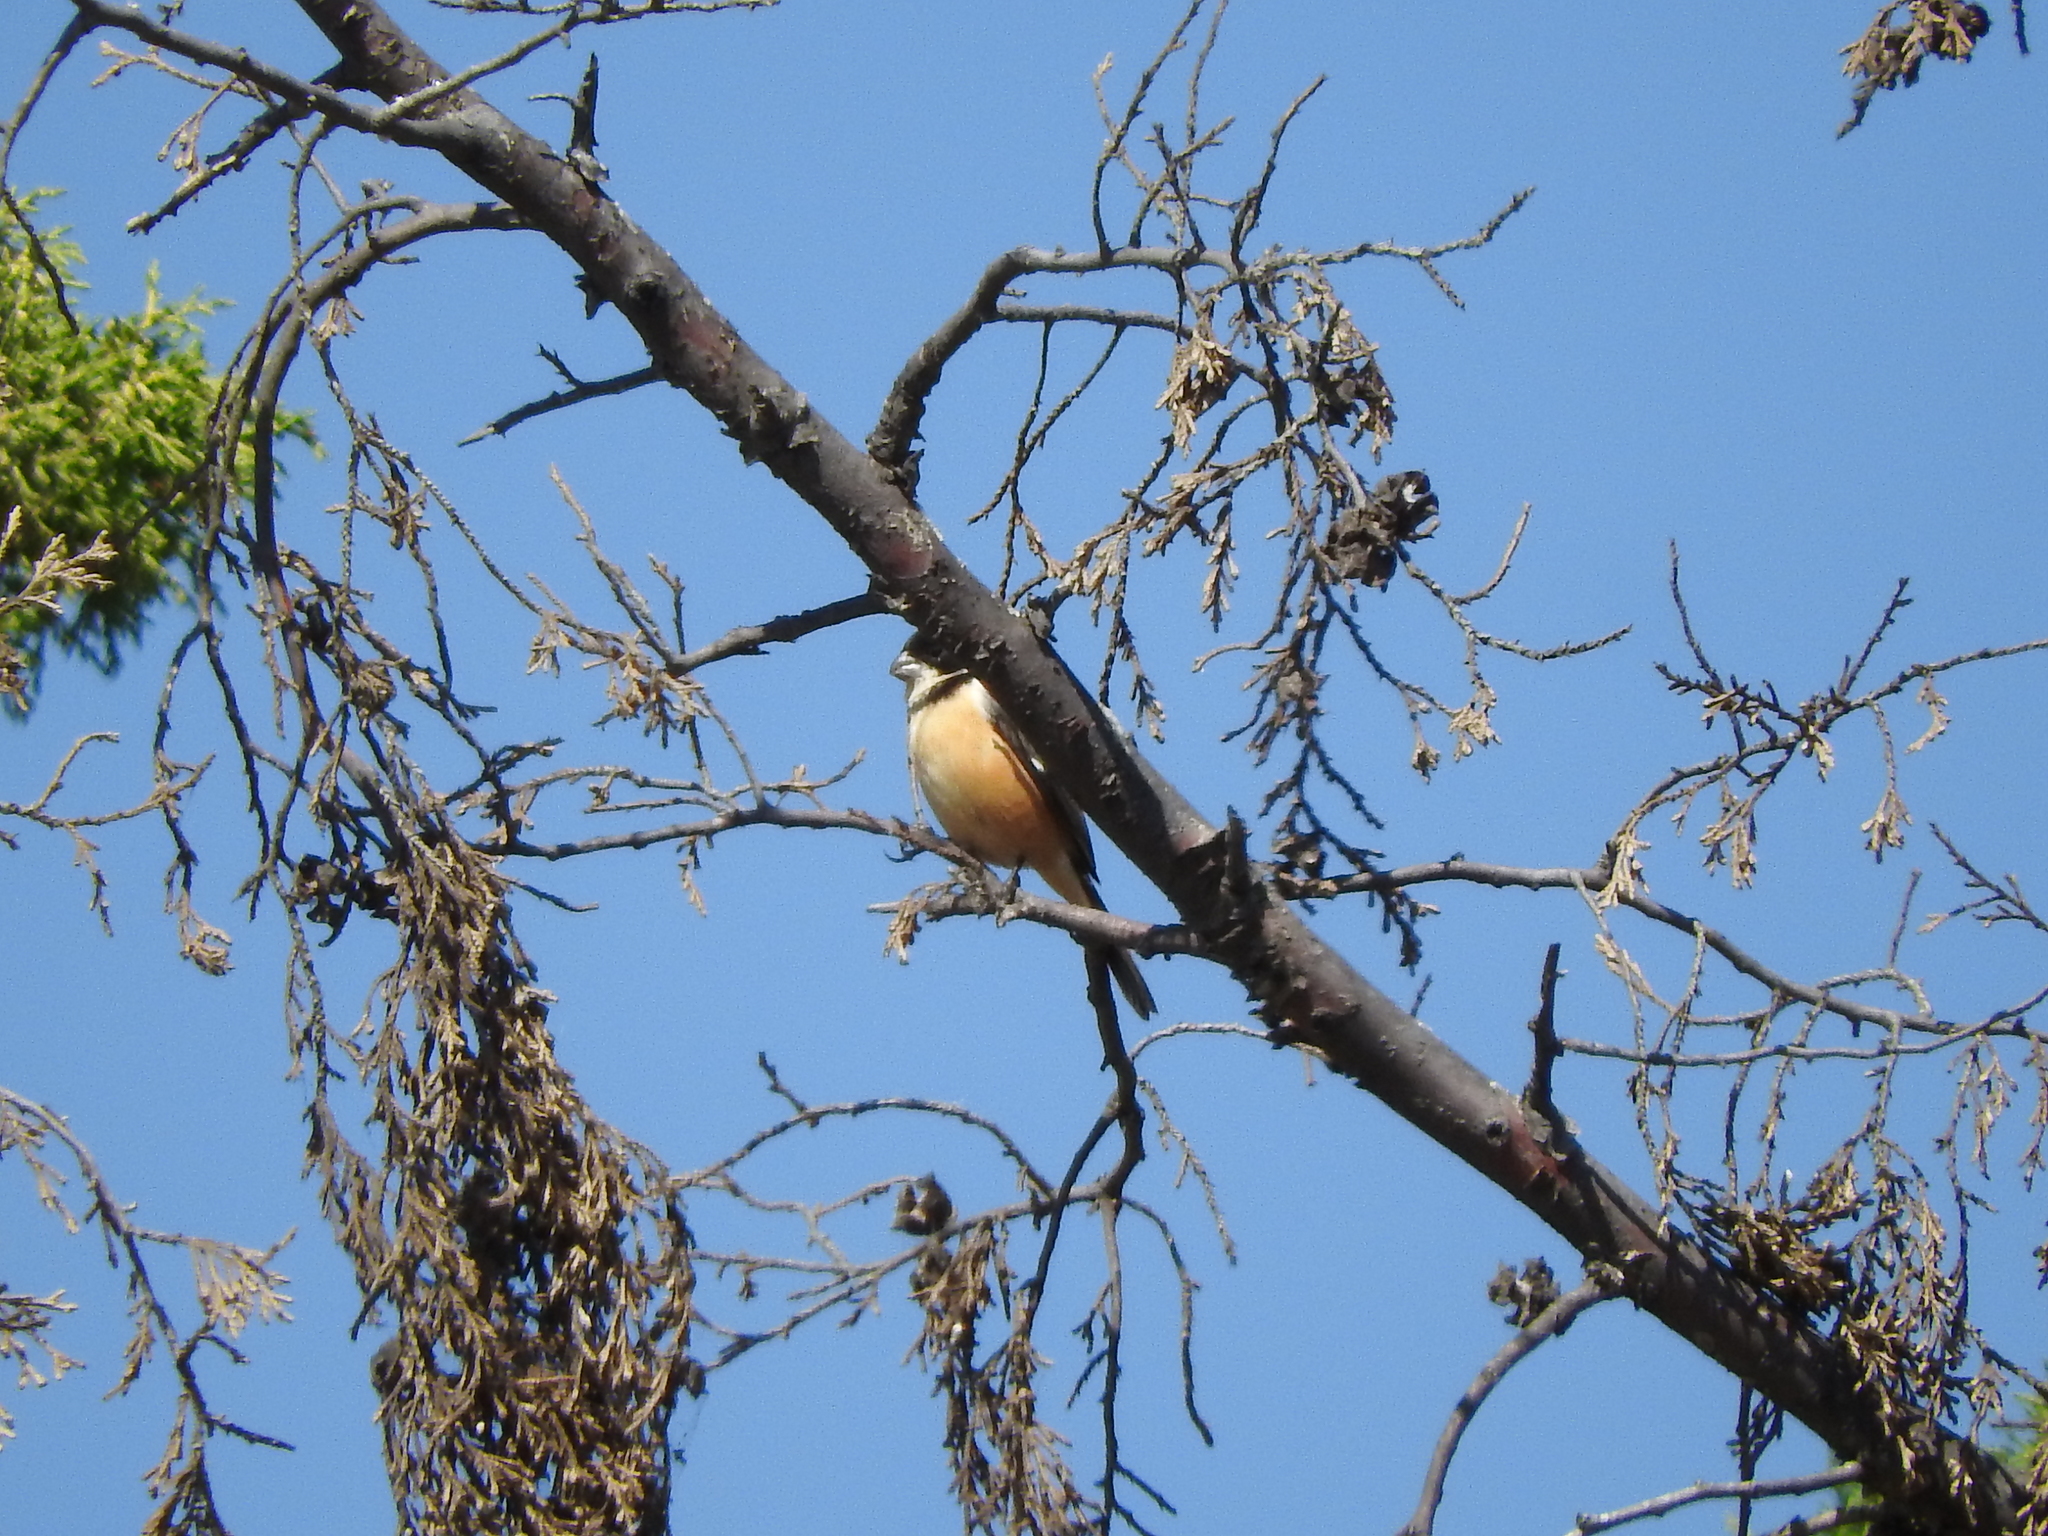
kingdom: Animalia
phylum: Chordata
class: Aves
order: Passeriformes
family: Thraupidae
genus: Sporophila
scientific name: Sporophila torqueola
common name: White-collared seedeater
